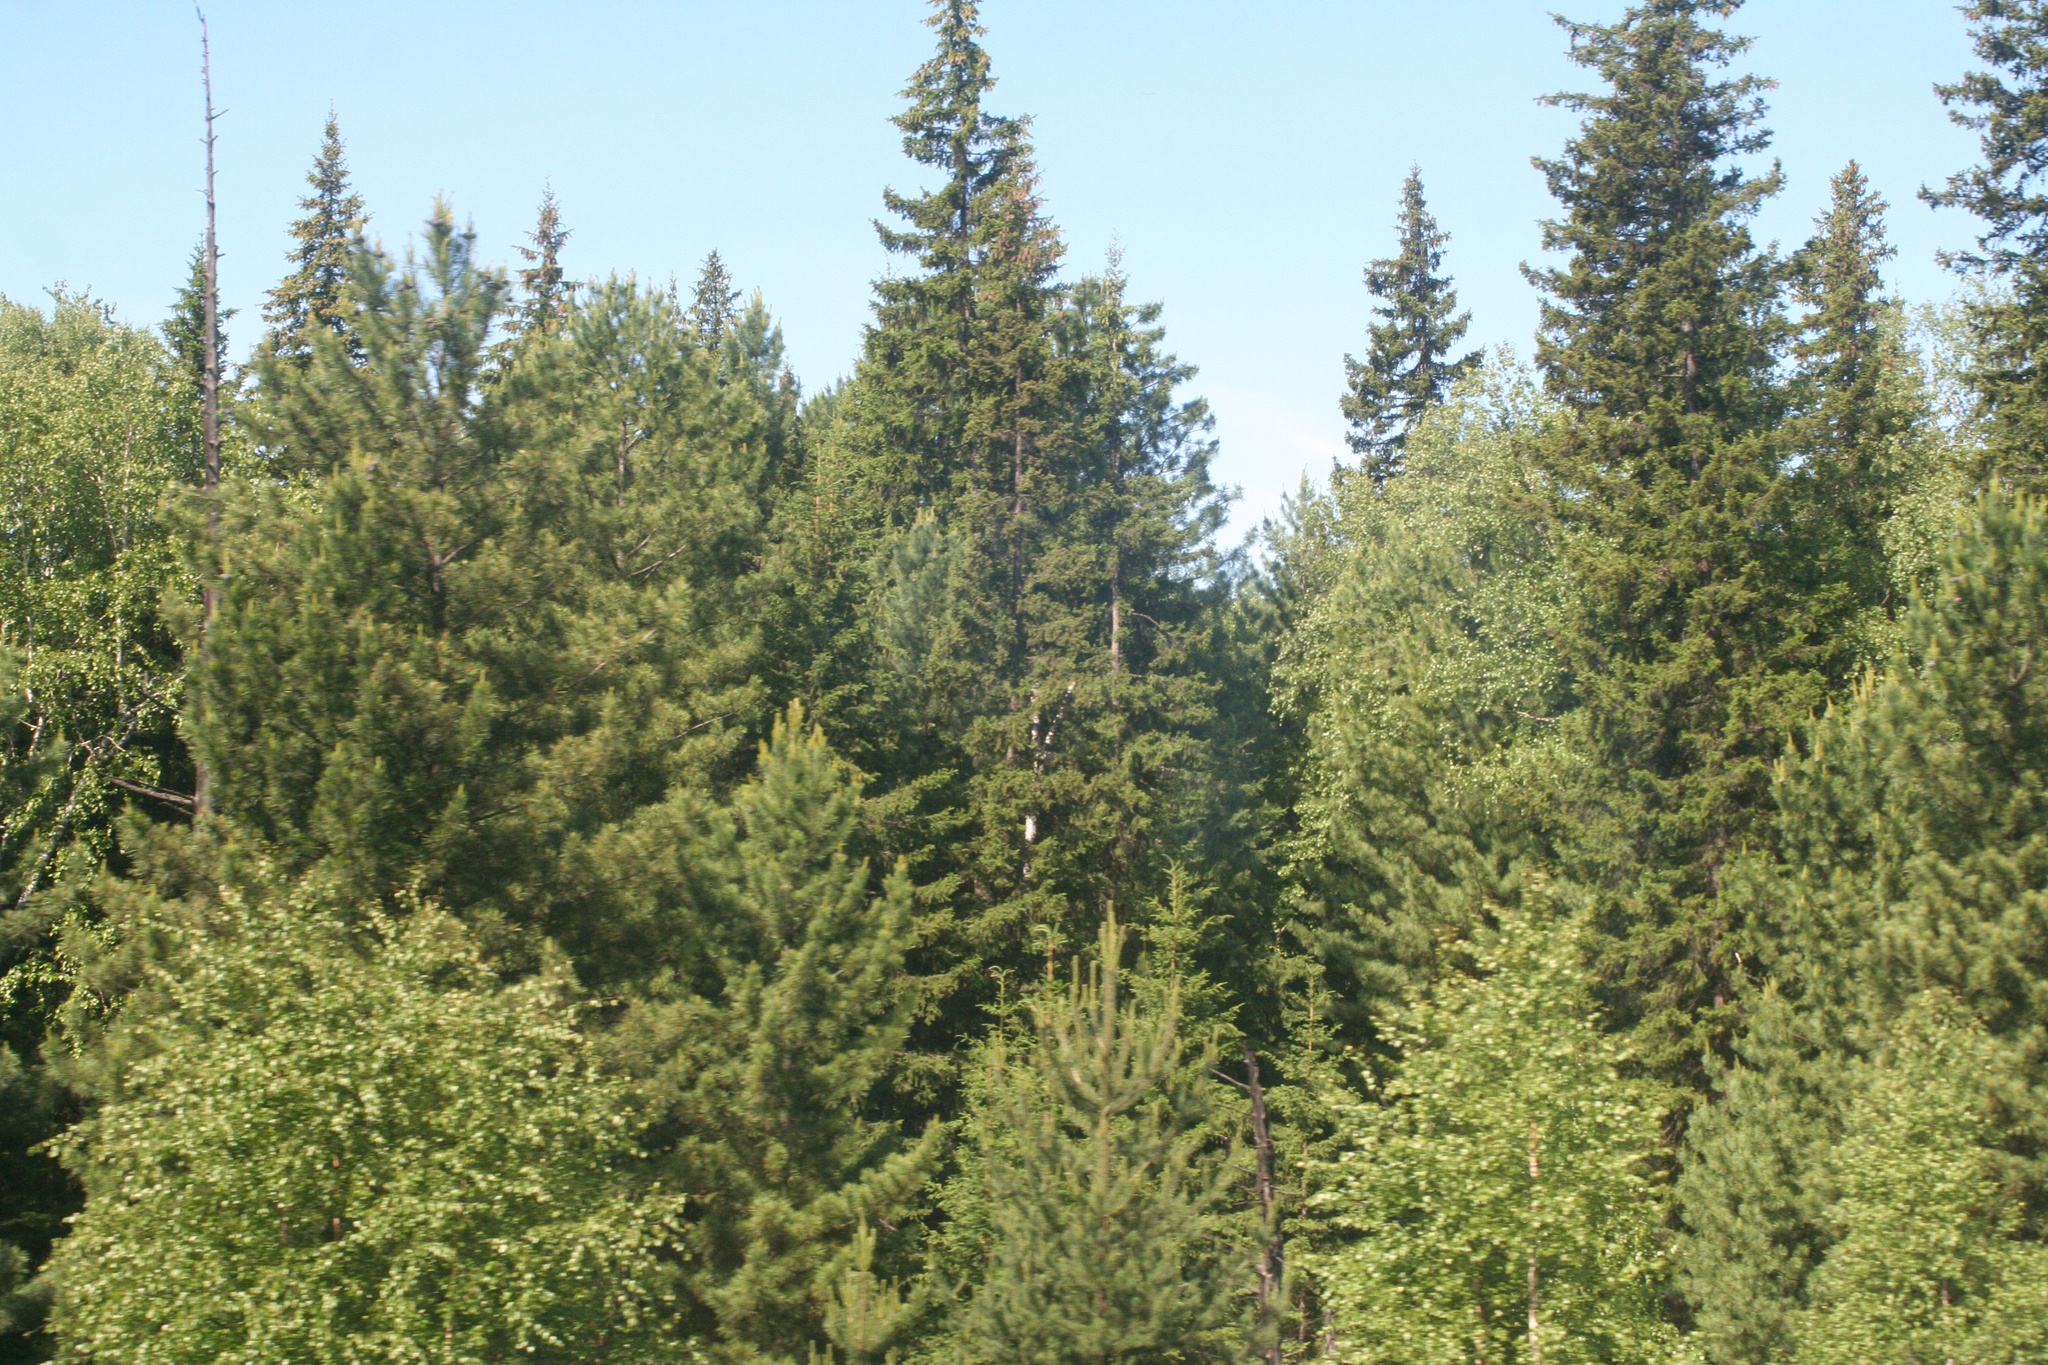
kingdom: Plantae
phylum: Tracheophyta
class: Pinopsida
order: Pinales
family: Pinaceae
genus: Picea
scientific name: Picea obovata
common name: Siberian spruce
